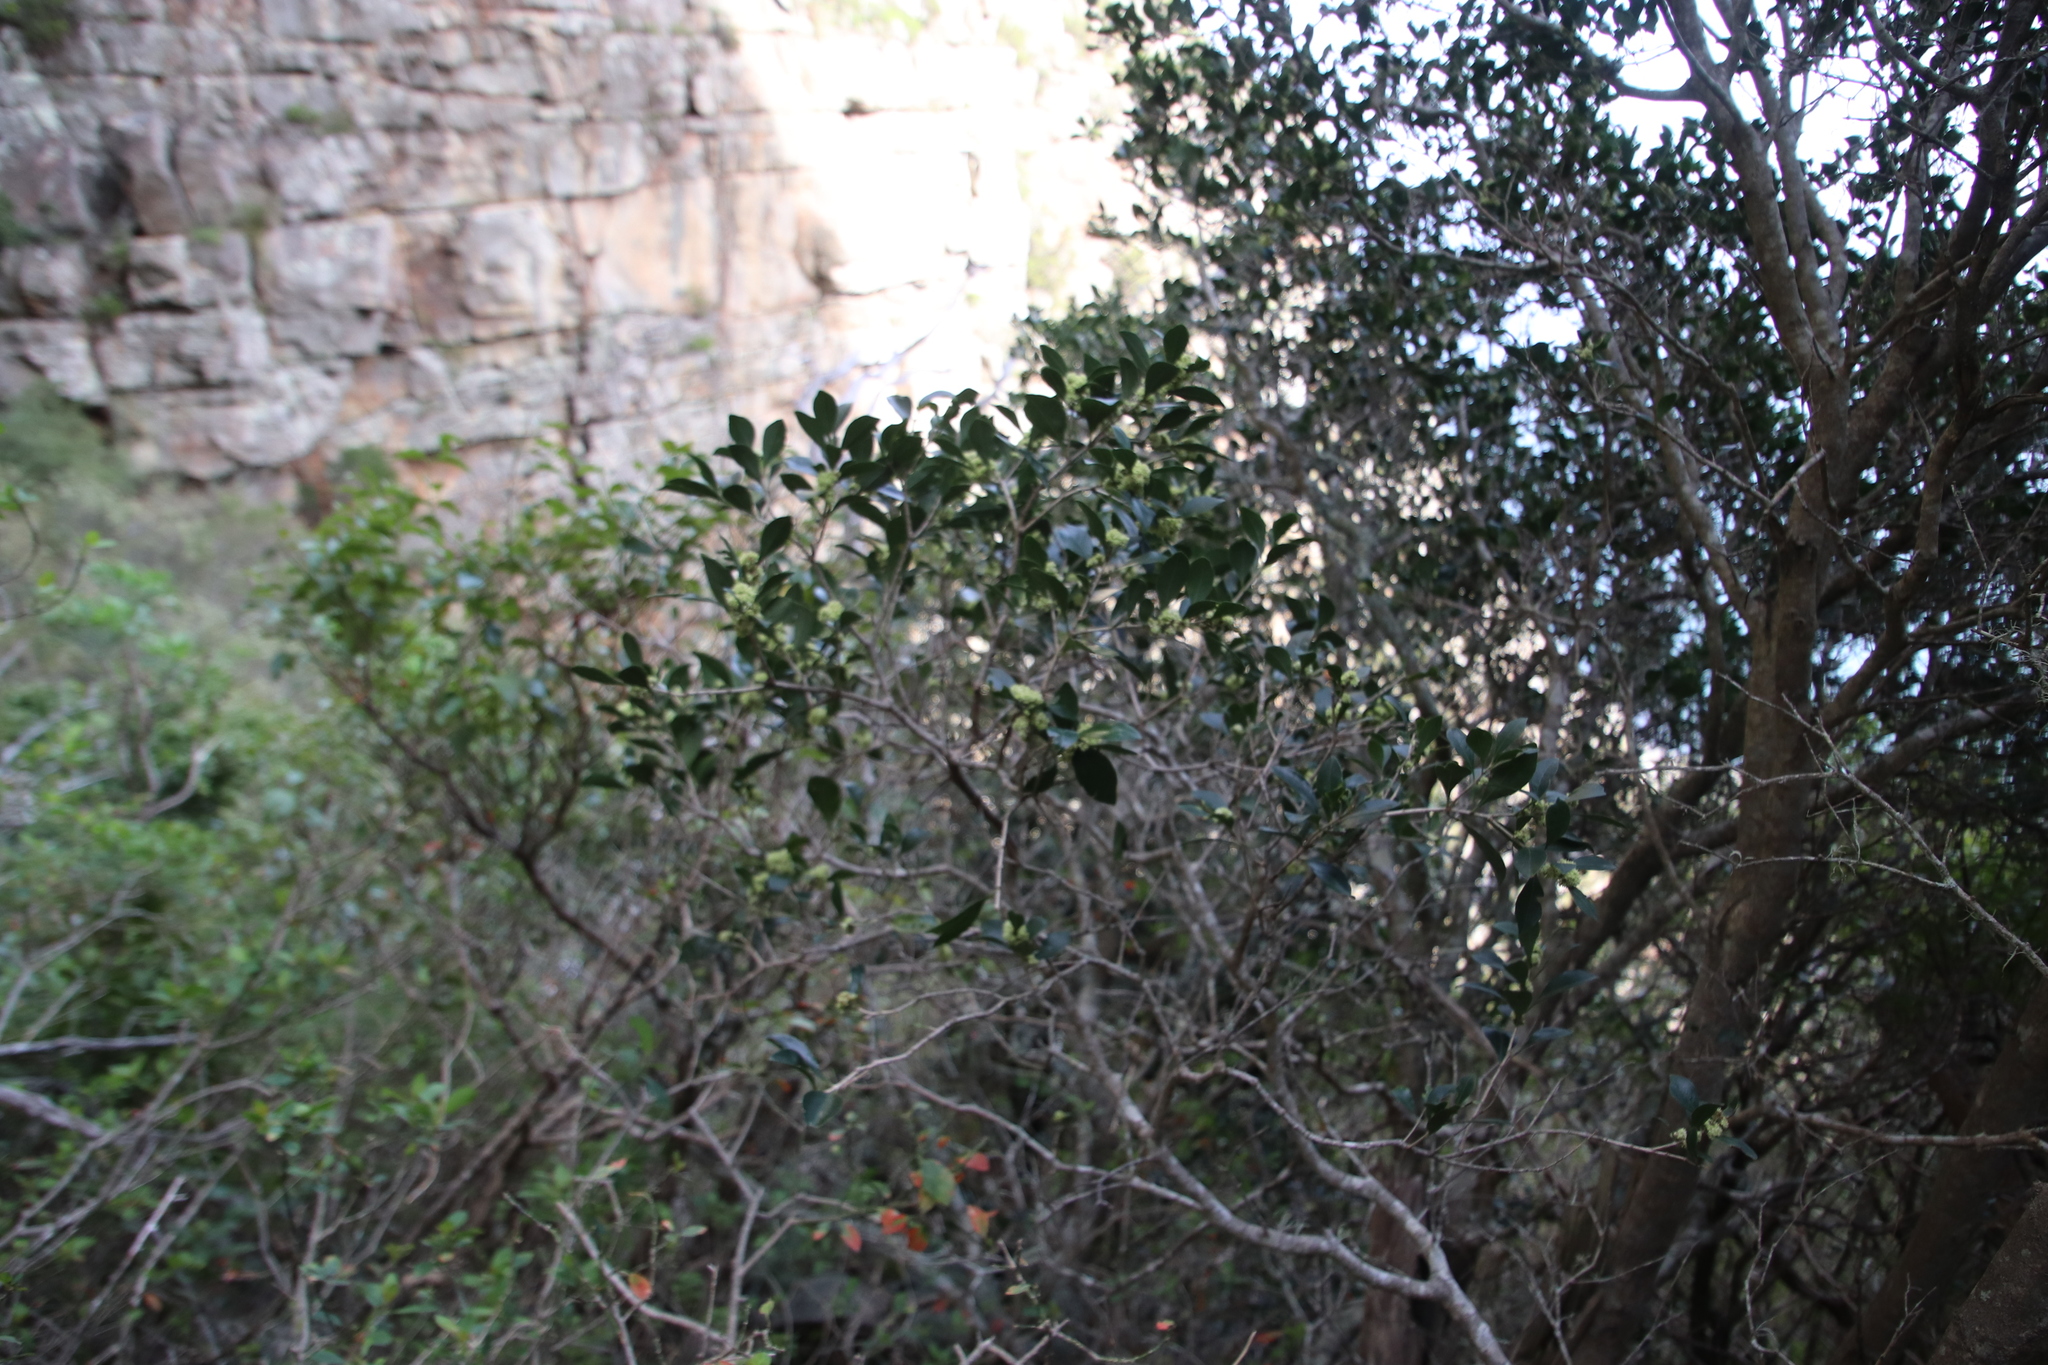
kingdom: Plantae
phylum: Tracheophyta
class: Magnoliopsida
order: Myrtales
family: Penaeaceae
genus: Olinia
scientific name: Olinia ventosa
